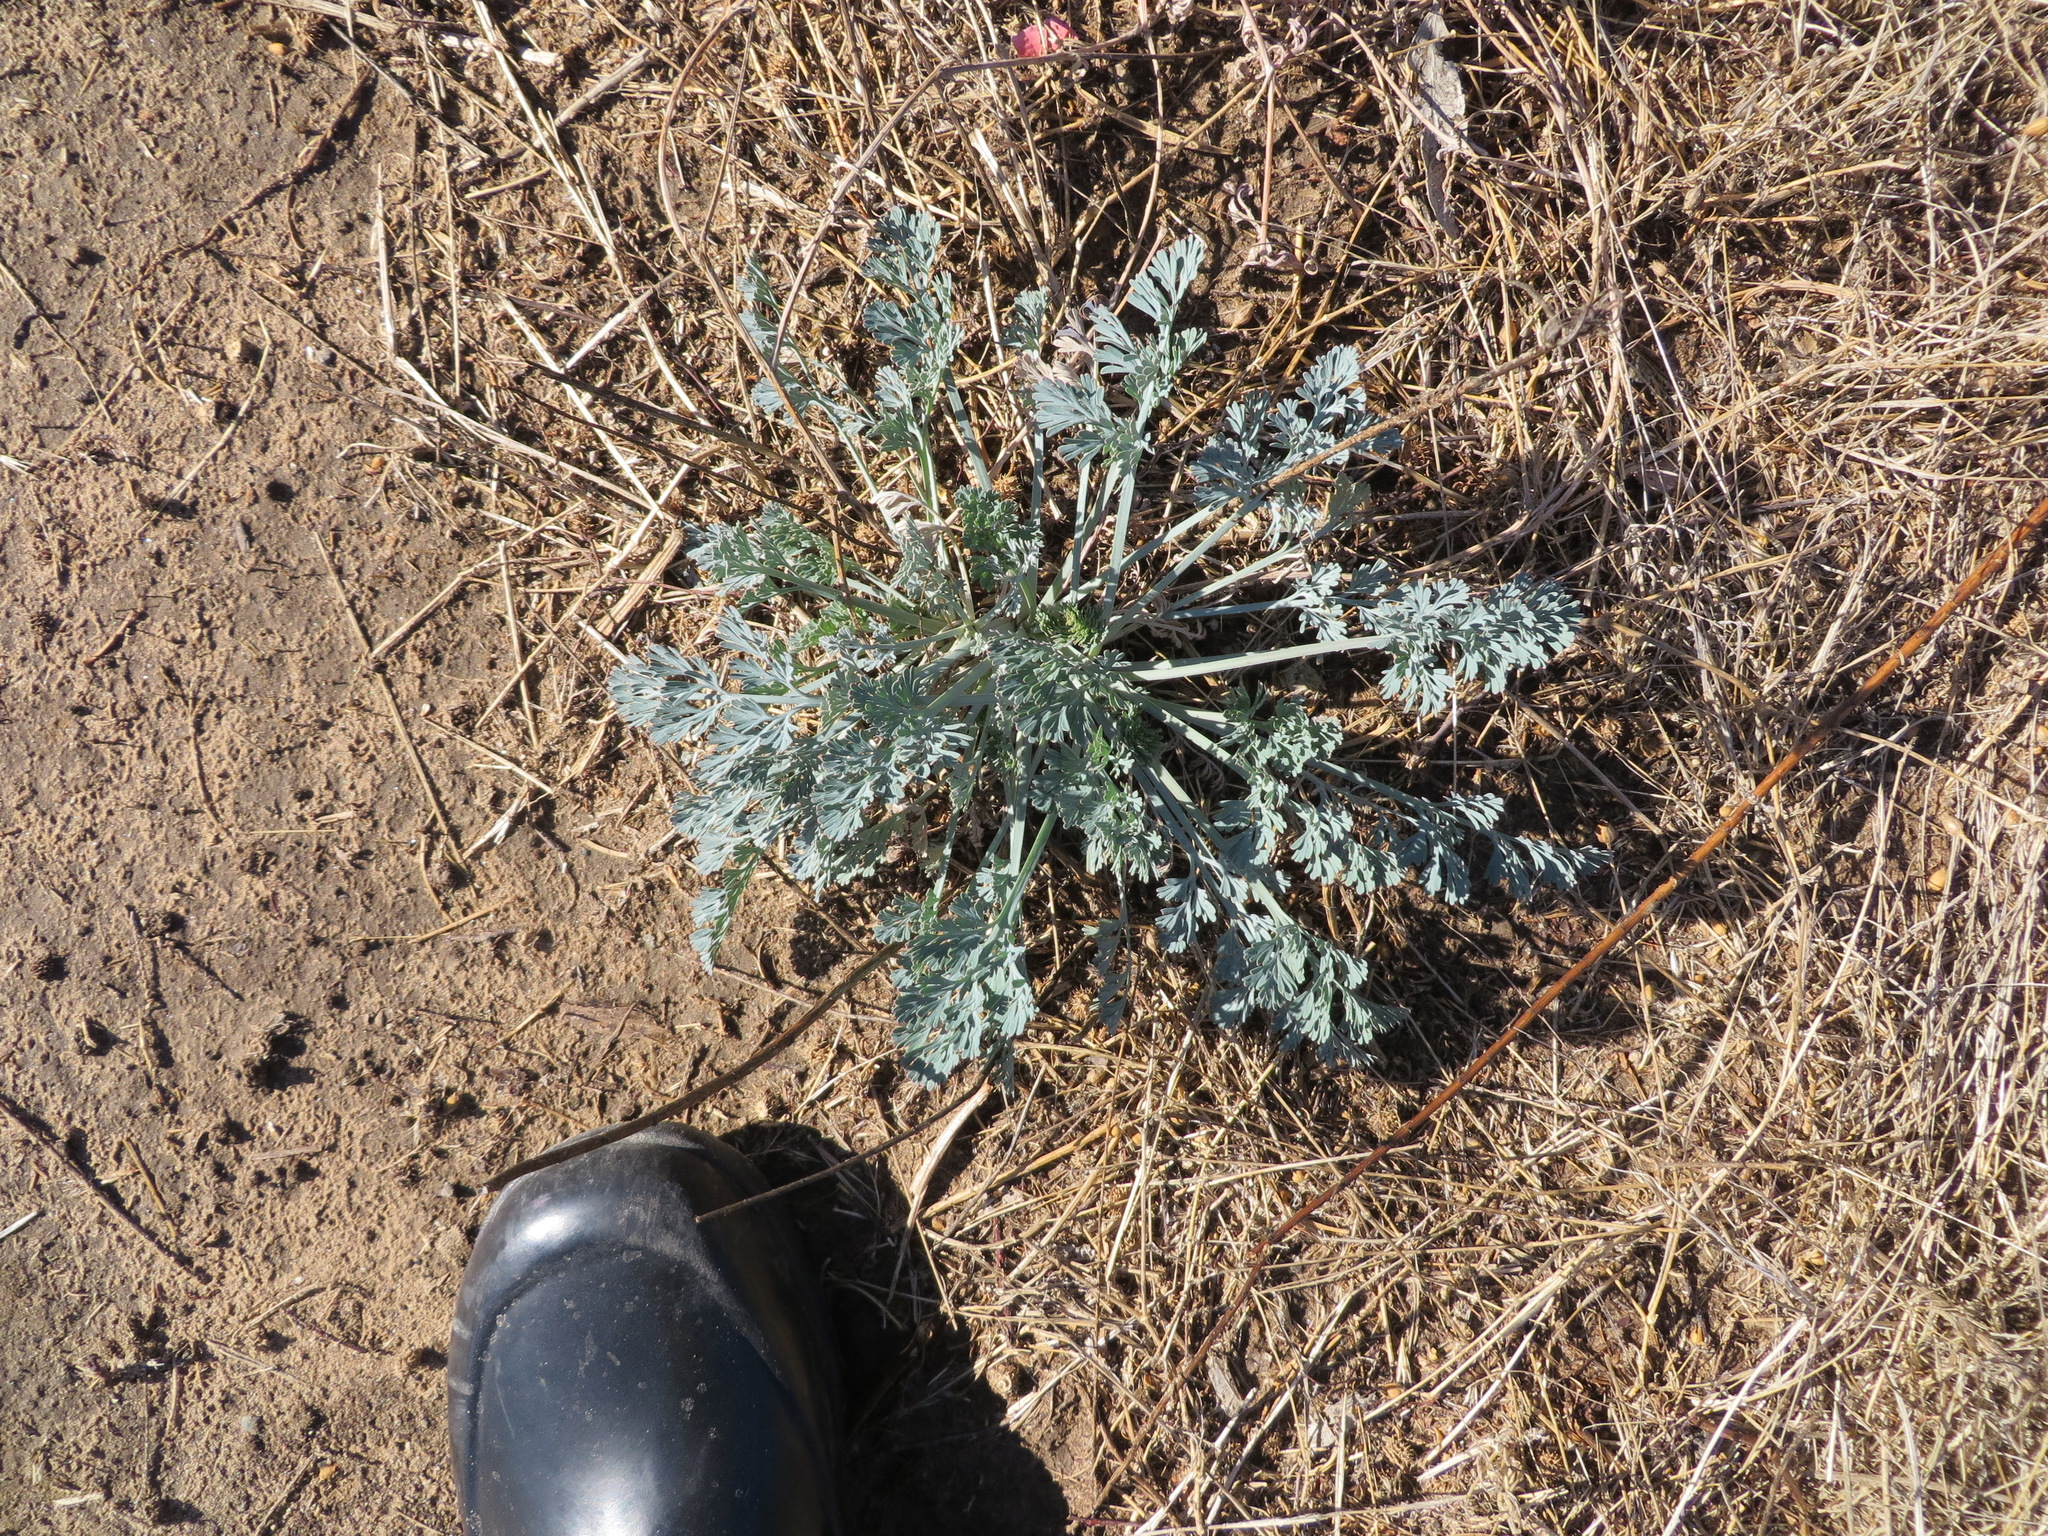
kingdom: Plantae
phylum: Tracheophyta
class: Magnoliopsida
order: Ranunculales
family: Papaveraceae
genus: Eschscholzia
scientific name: Eschscholzia californica
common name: California poppy
